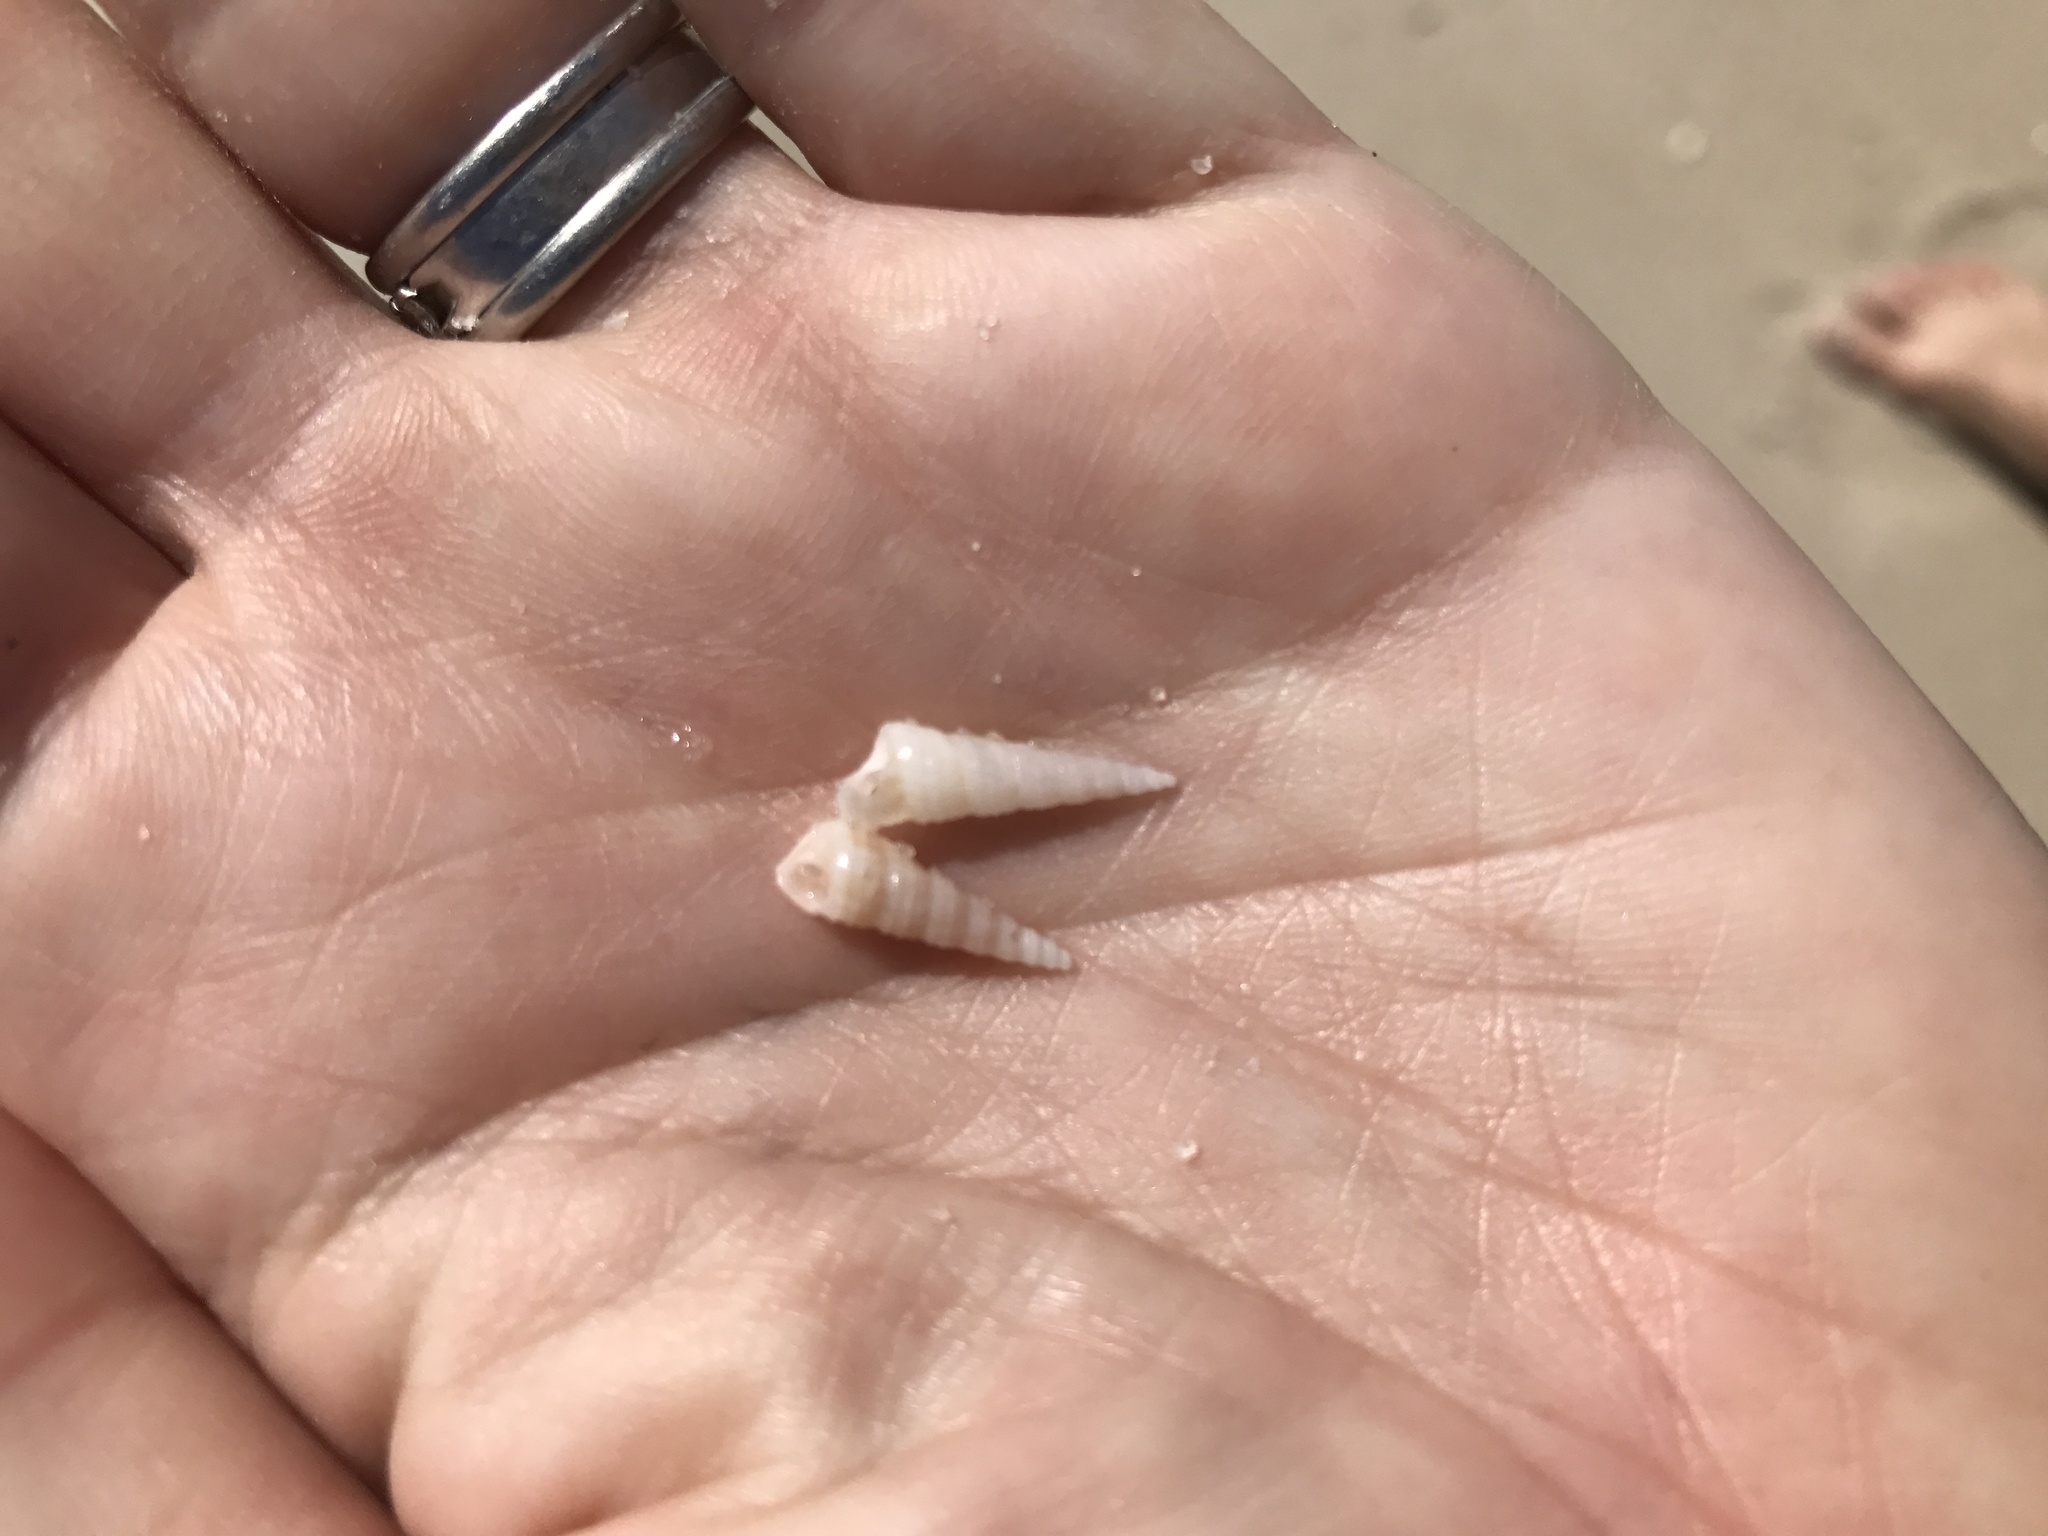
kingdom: Animalia
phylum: Mollusca
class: Gastropoda
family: Turritellidae
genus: Turritella
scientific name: Turritella acropora
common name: Boring turretsnail
